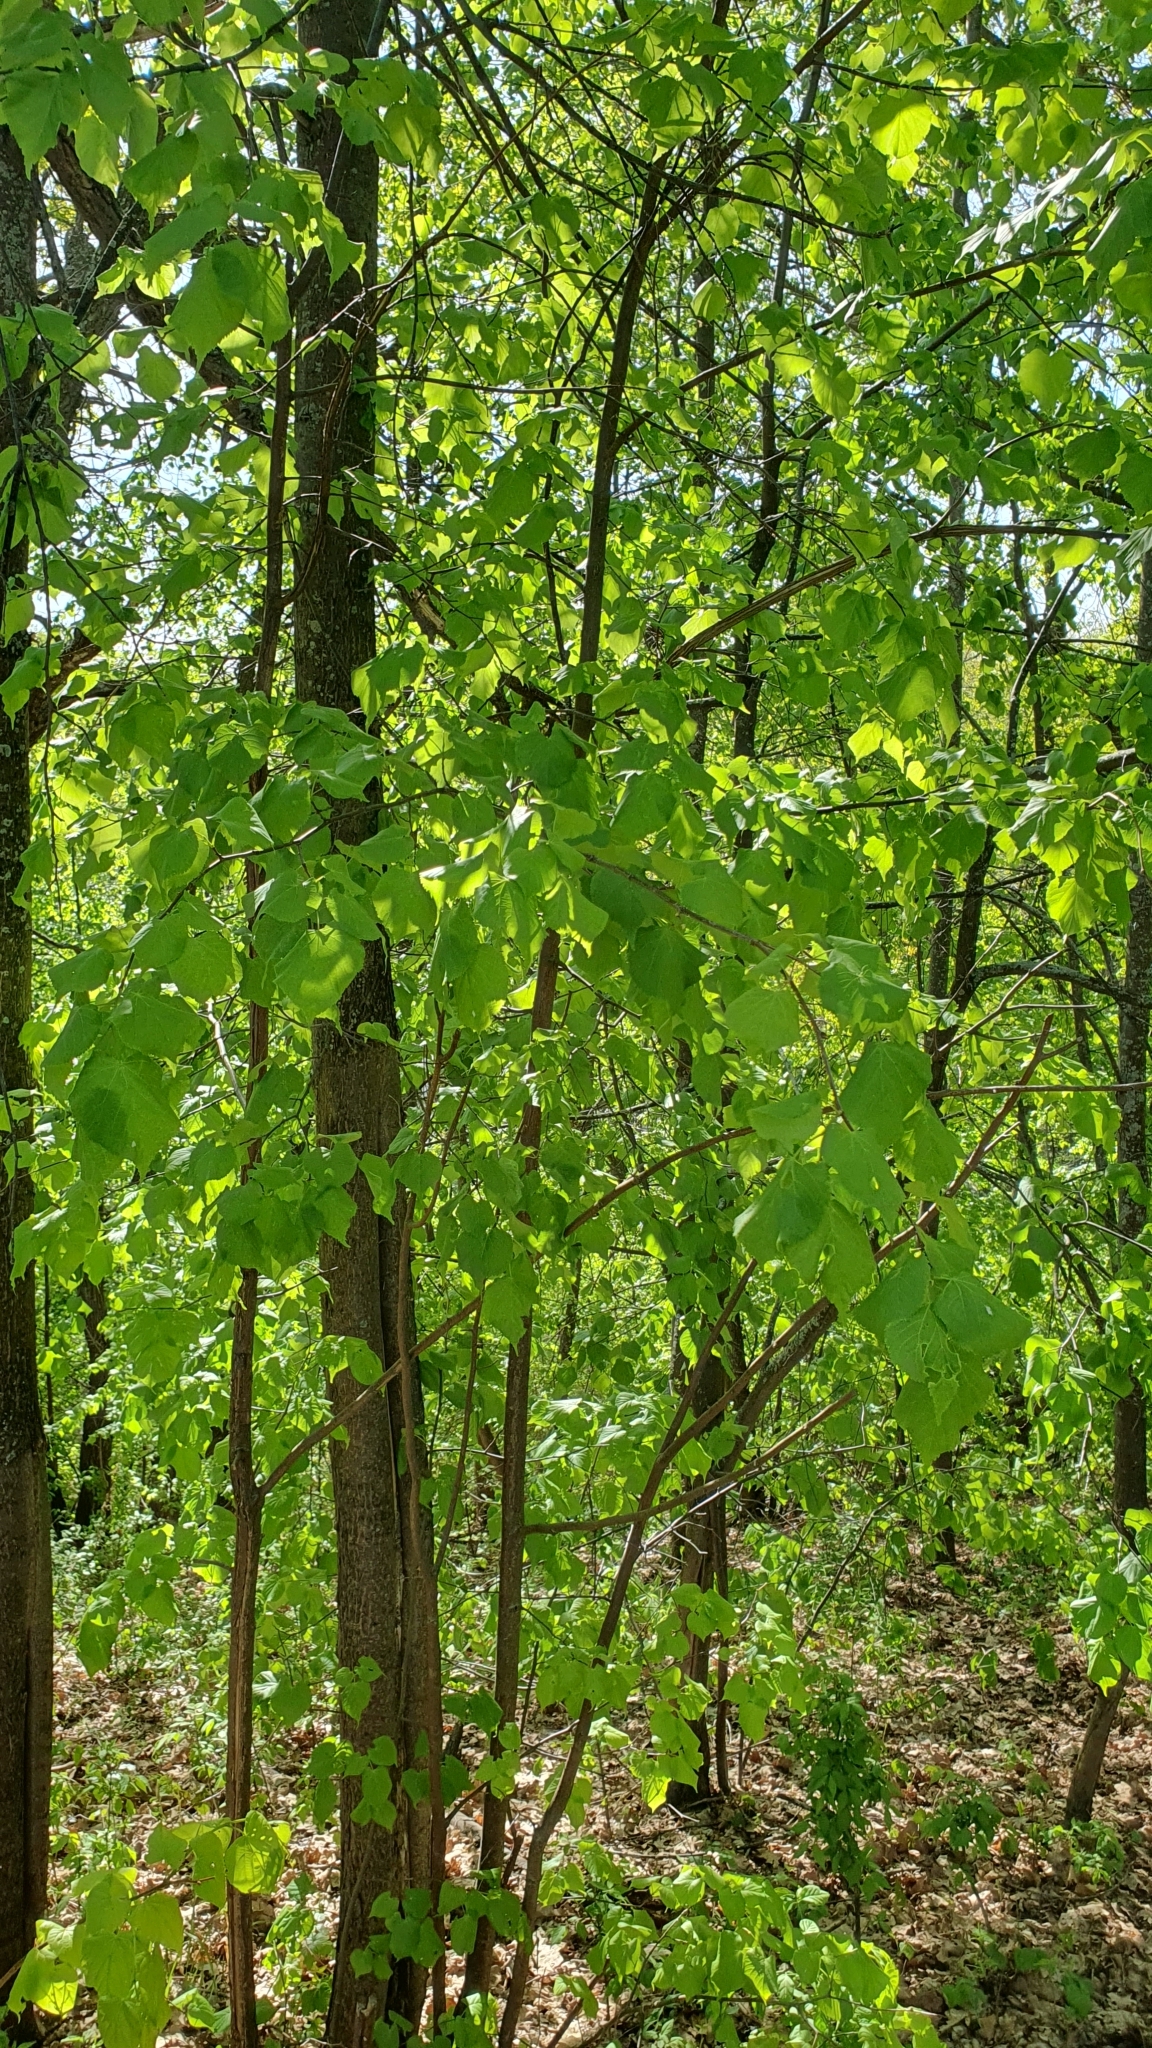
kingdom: Plantae
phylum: Tracheophyta
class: Magnoliopsida
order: Malvales
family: Malvaceae
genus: Tilia
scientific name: Tilia cordata
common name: Small-leaved lime
